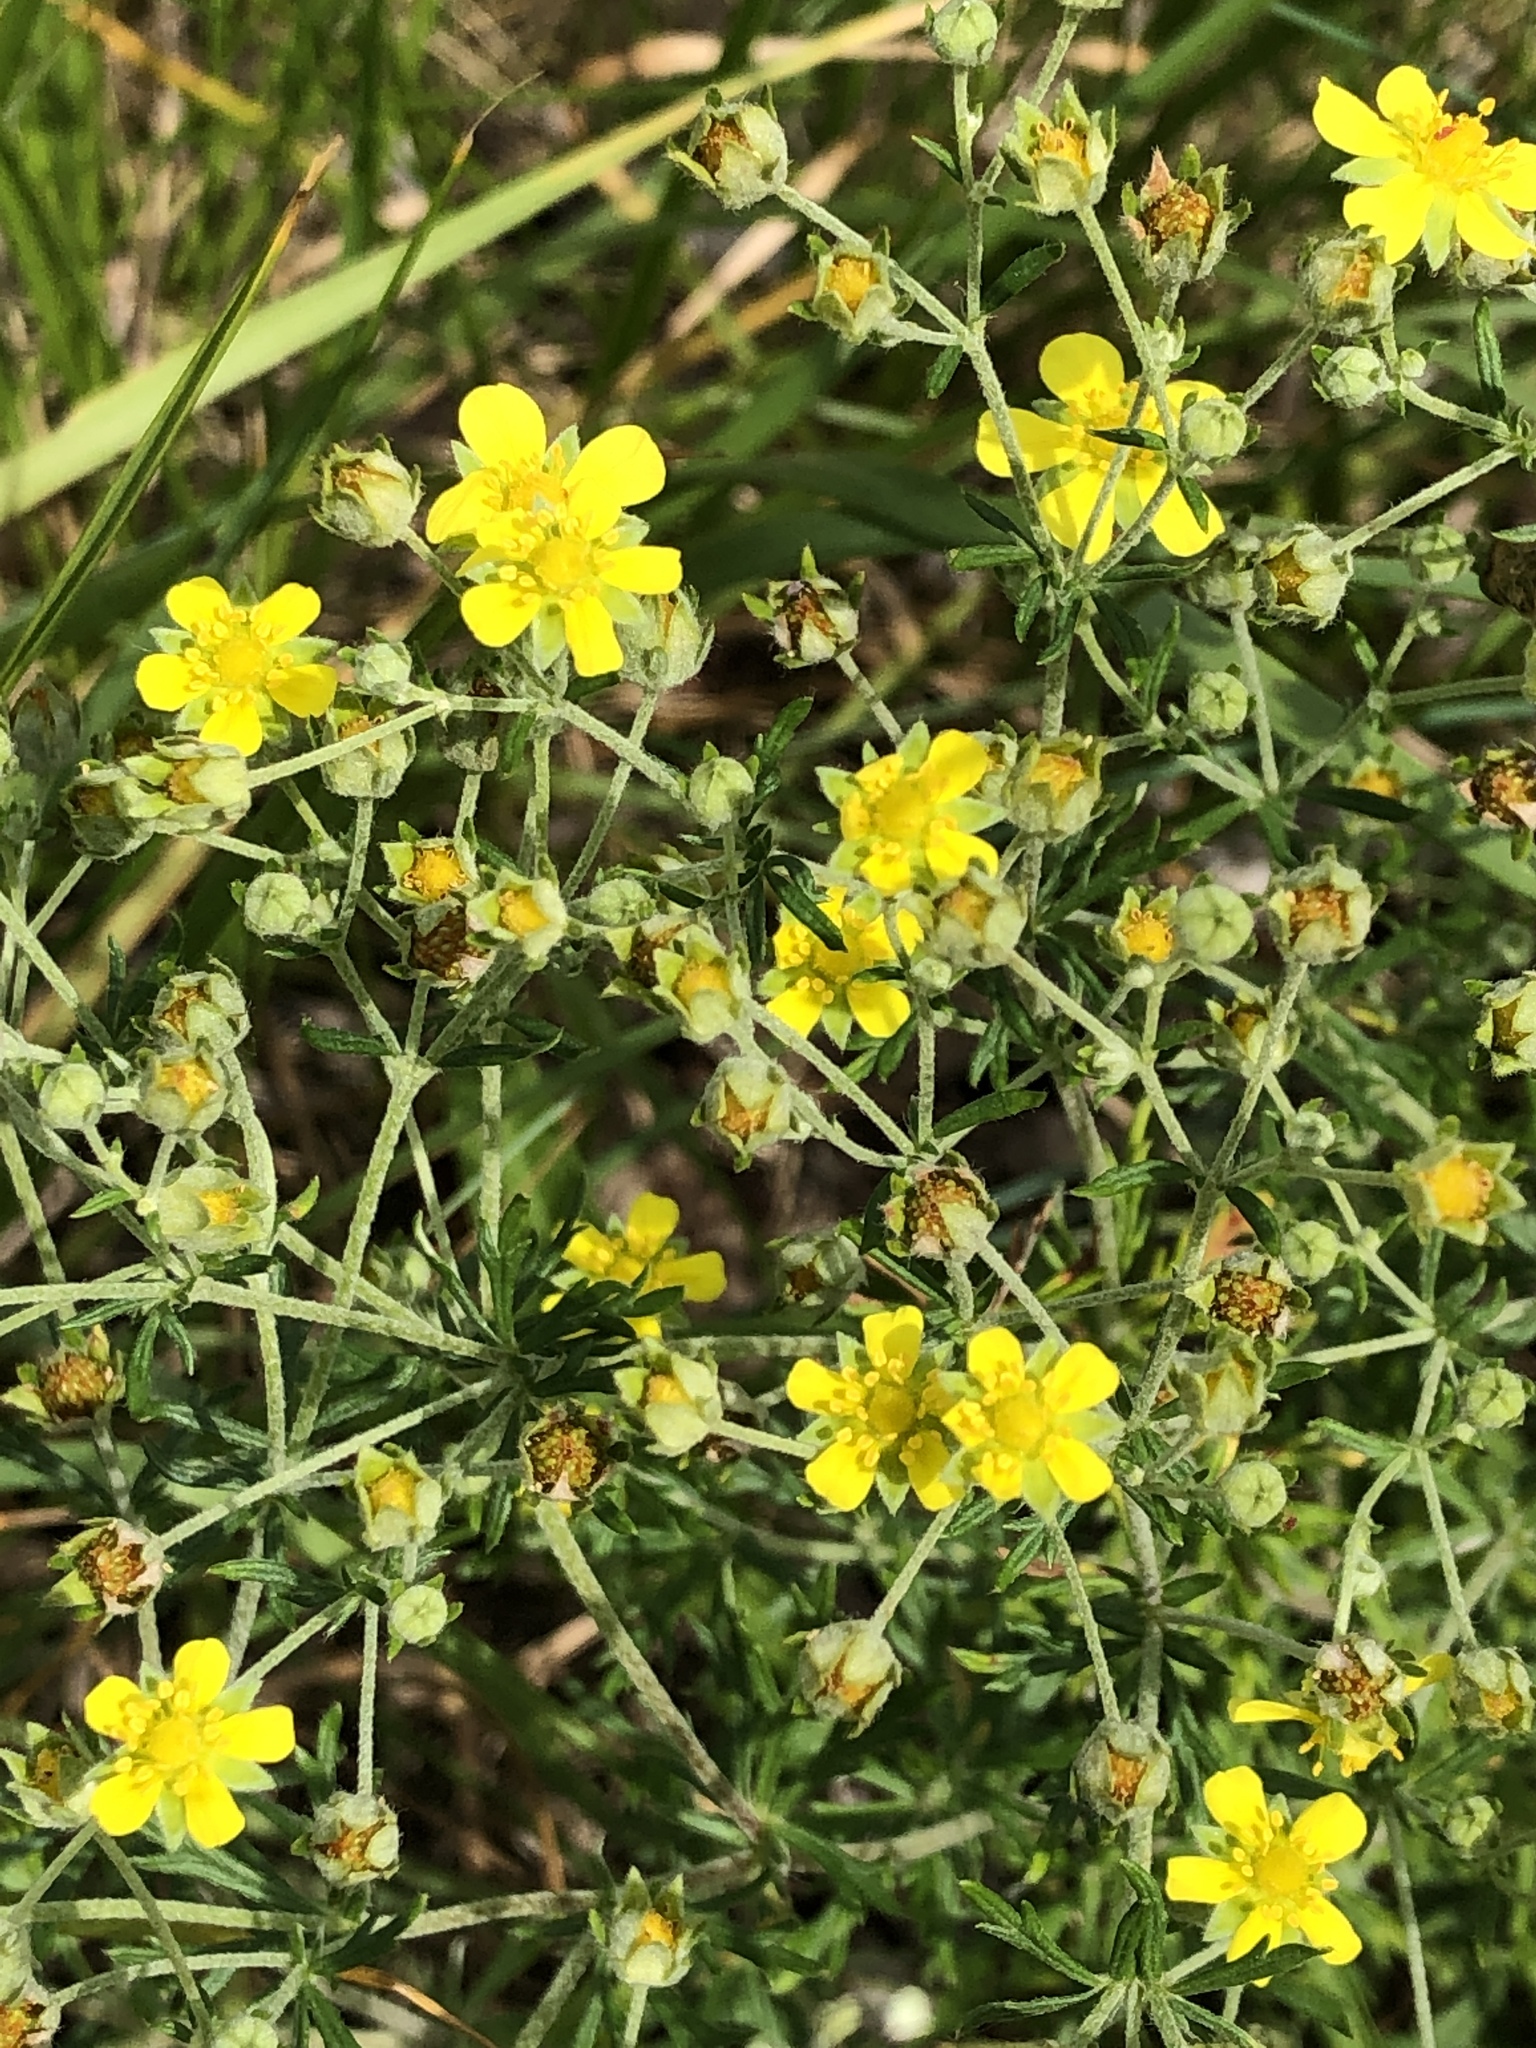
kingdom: Plantae
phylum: Tracheophyta
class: Magnoliopsida
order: Rosales
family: Rosaceae
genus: Potentilla
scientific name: Potentilla argentea
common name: Hoary cinquefoil
